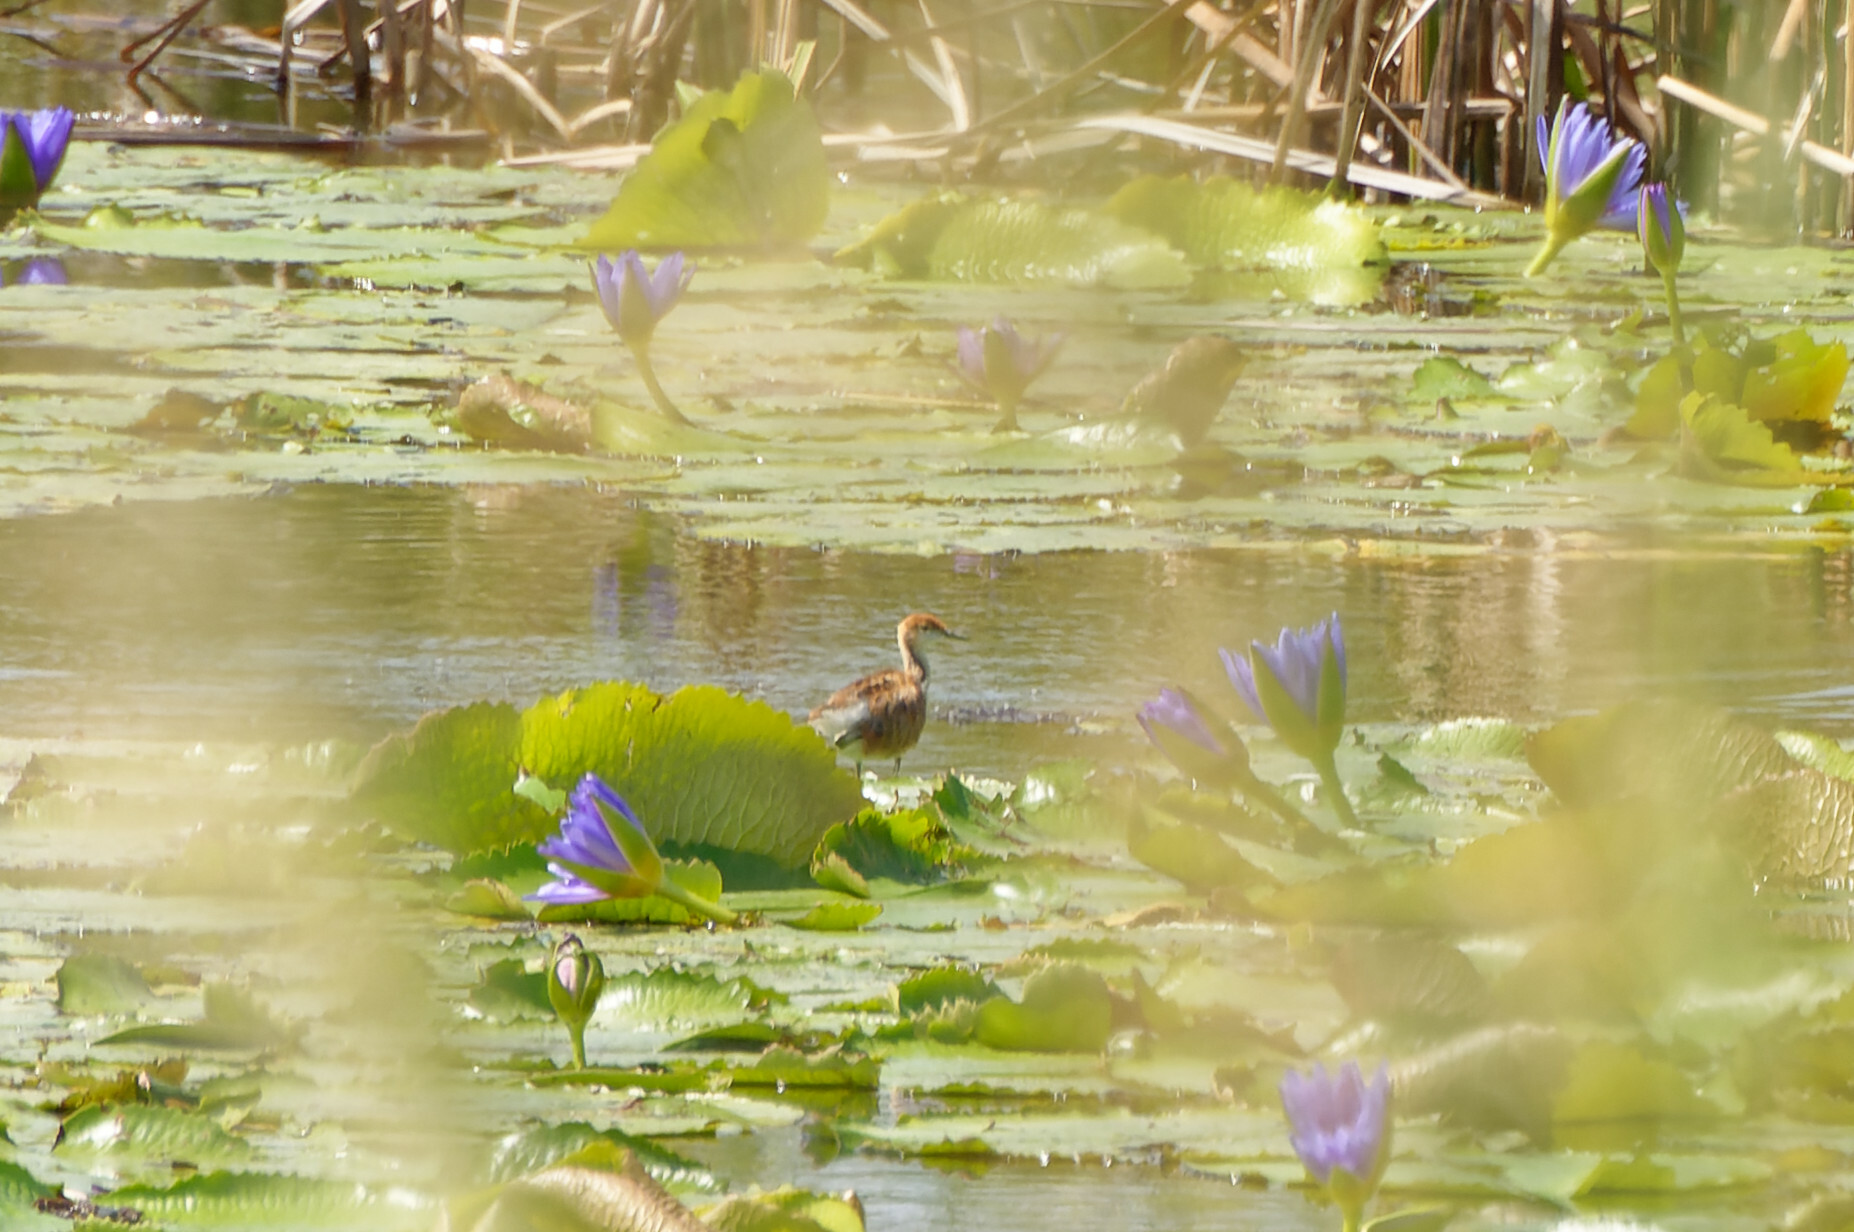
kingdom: Animalia
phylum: Chordata
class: Aves
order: Charadriiformes
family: Jacanidae
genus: Hydrophasianus
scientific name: Hydrophasianus chirurgus
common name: Pheasant-tailed jacana
